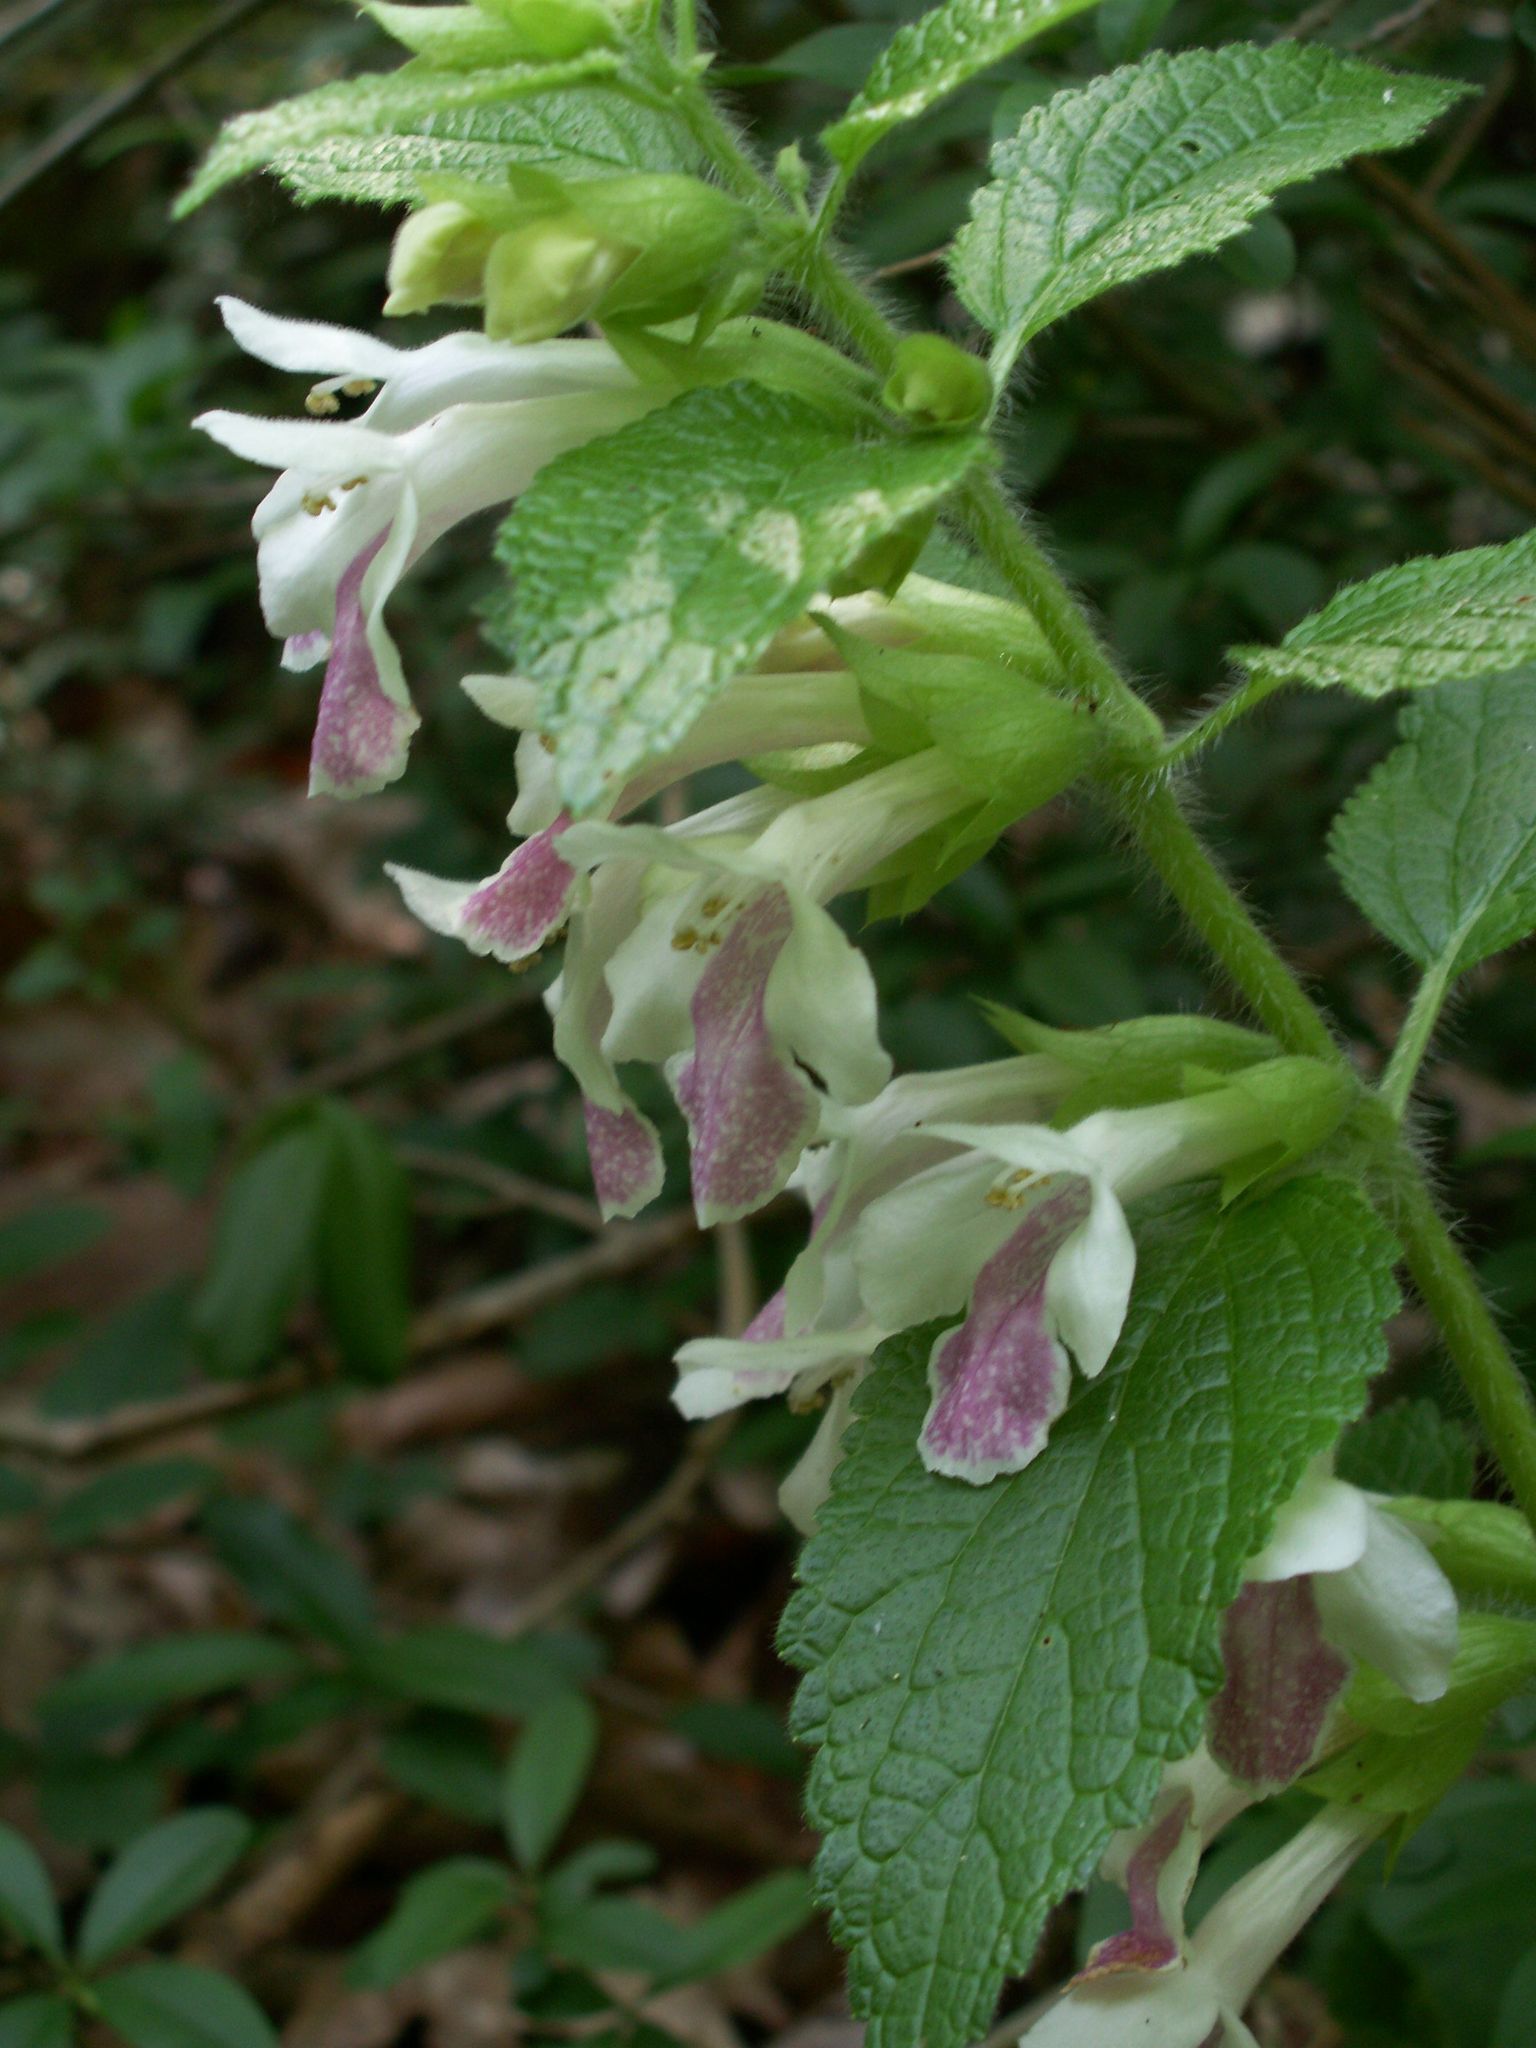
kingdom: Plantae
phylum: Tracheophyta
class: Magnoliopsida
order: Lamiales
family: Lamiaceae
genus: Melittis
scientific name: Melittis melissophyllum
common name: Bastard balm
